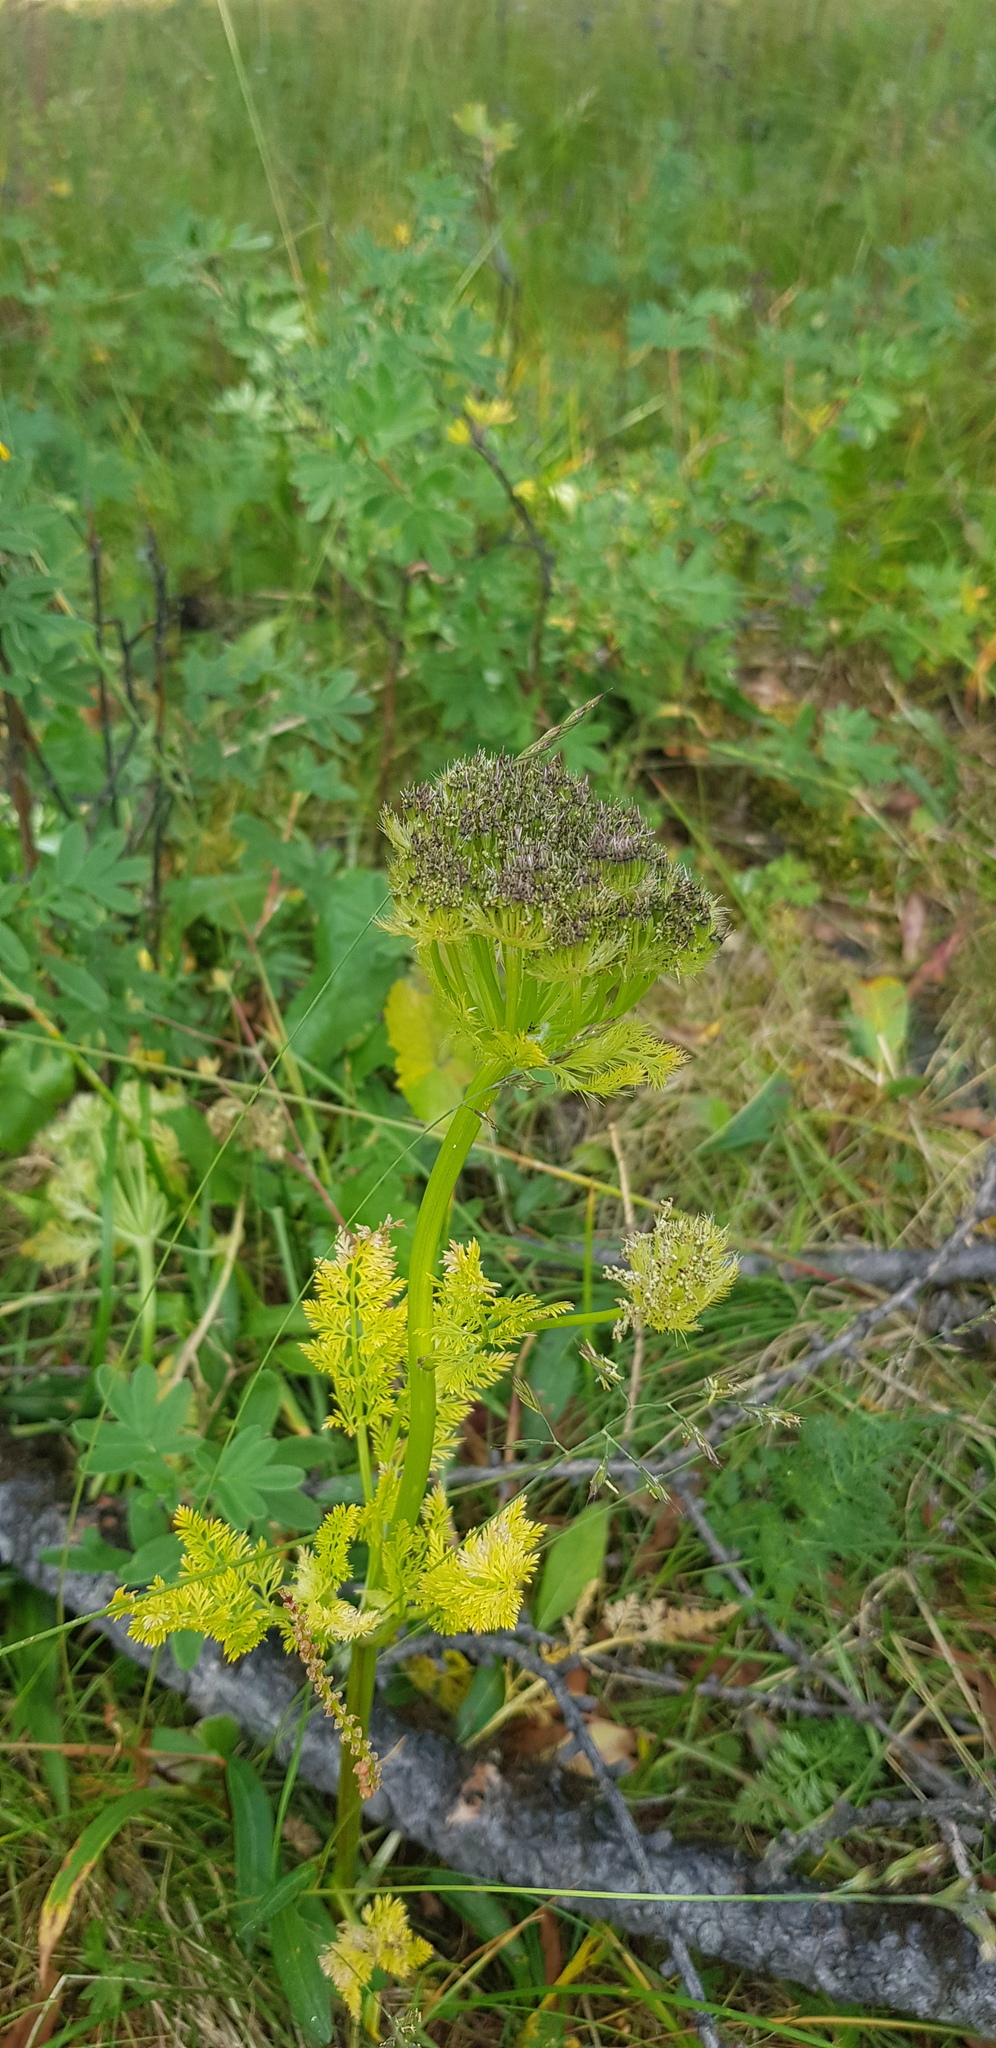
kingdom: Plantae
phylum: Tracheophyta
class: Magnoliopsida
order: Apiales
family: Apiaceae
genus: Schulzia
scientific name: Schulzia crinita
